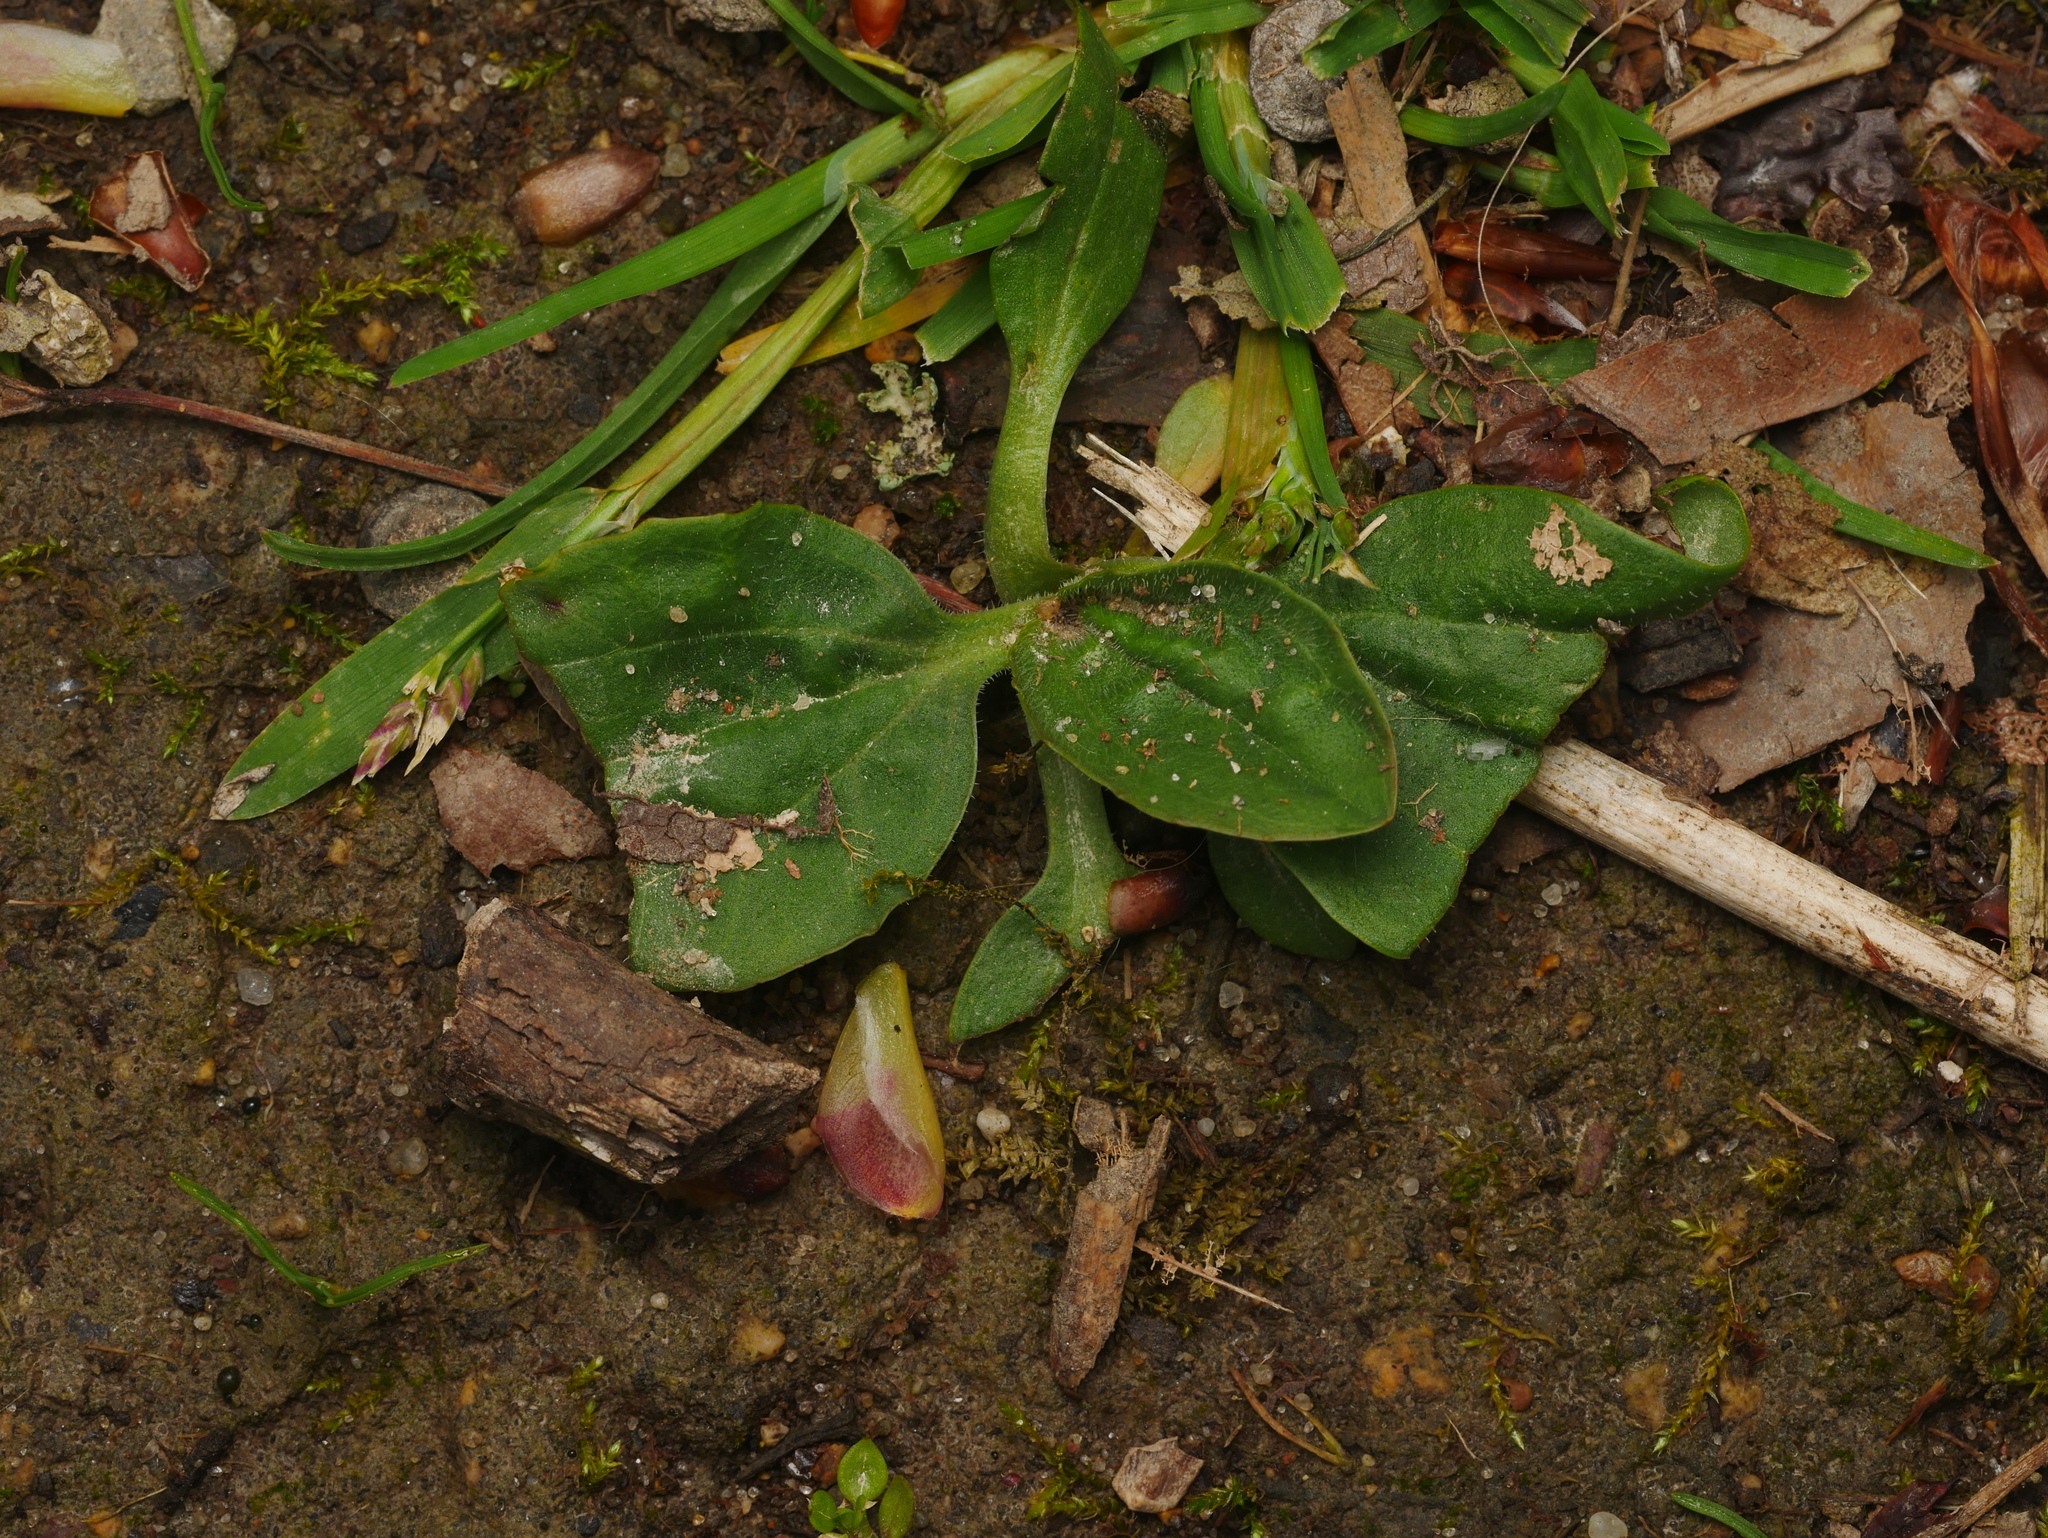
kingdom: Plantae
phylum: Tracheophyta
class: Magnoliopsida
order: Lamiales
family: Plantaginaceae
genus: Plantago
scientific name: Plantago major
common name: Common plantain
